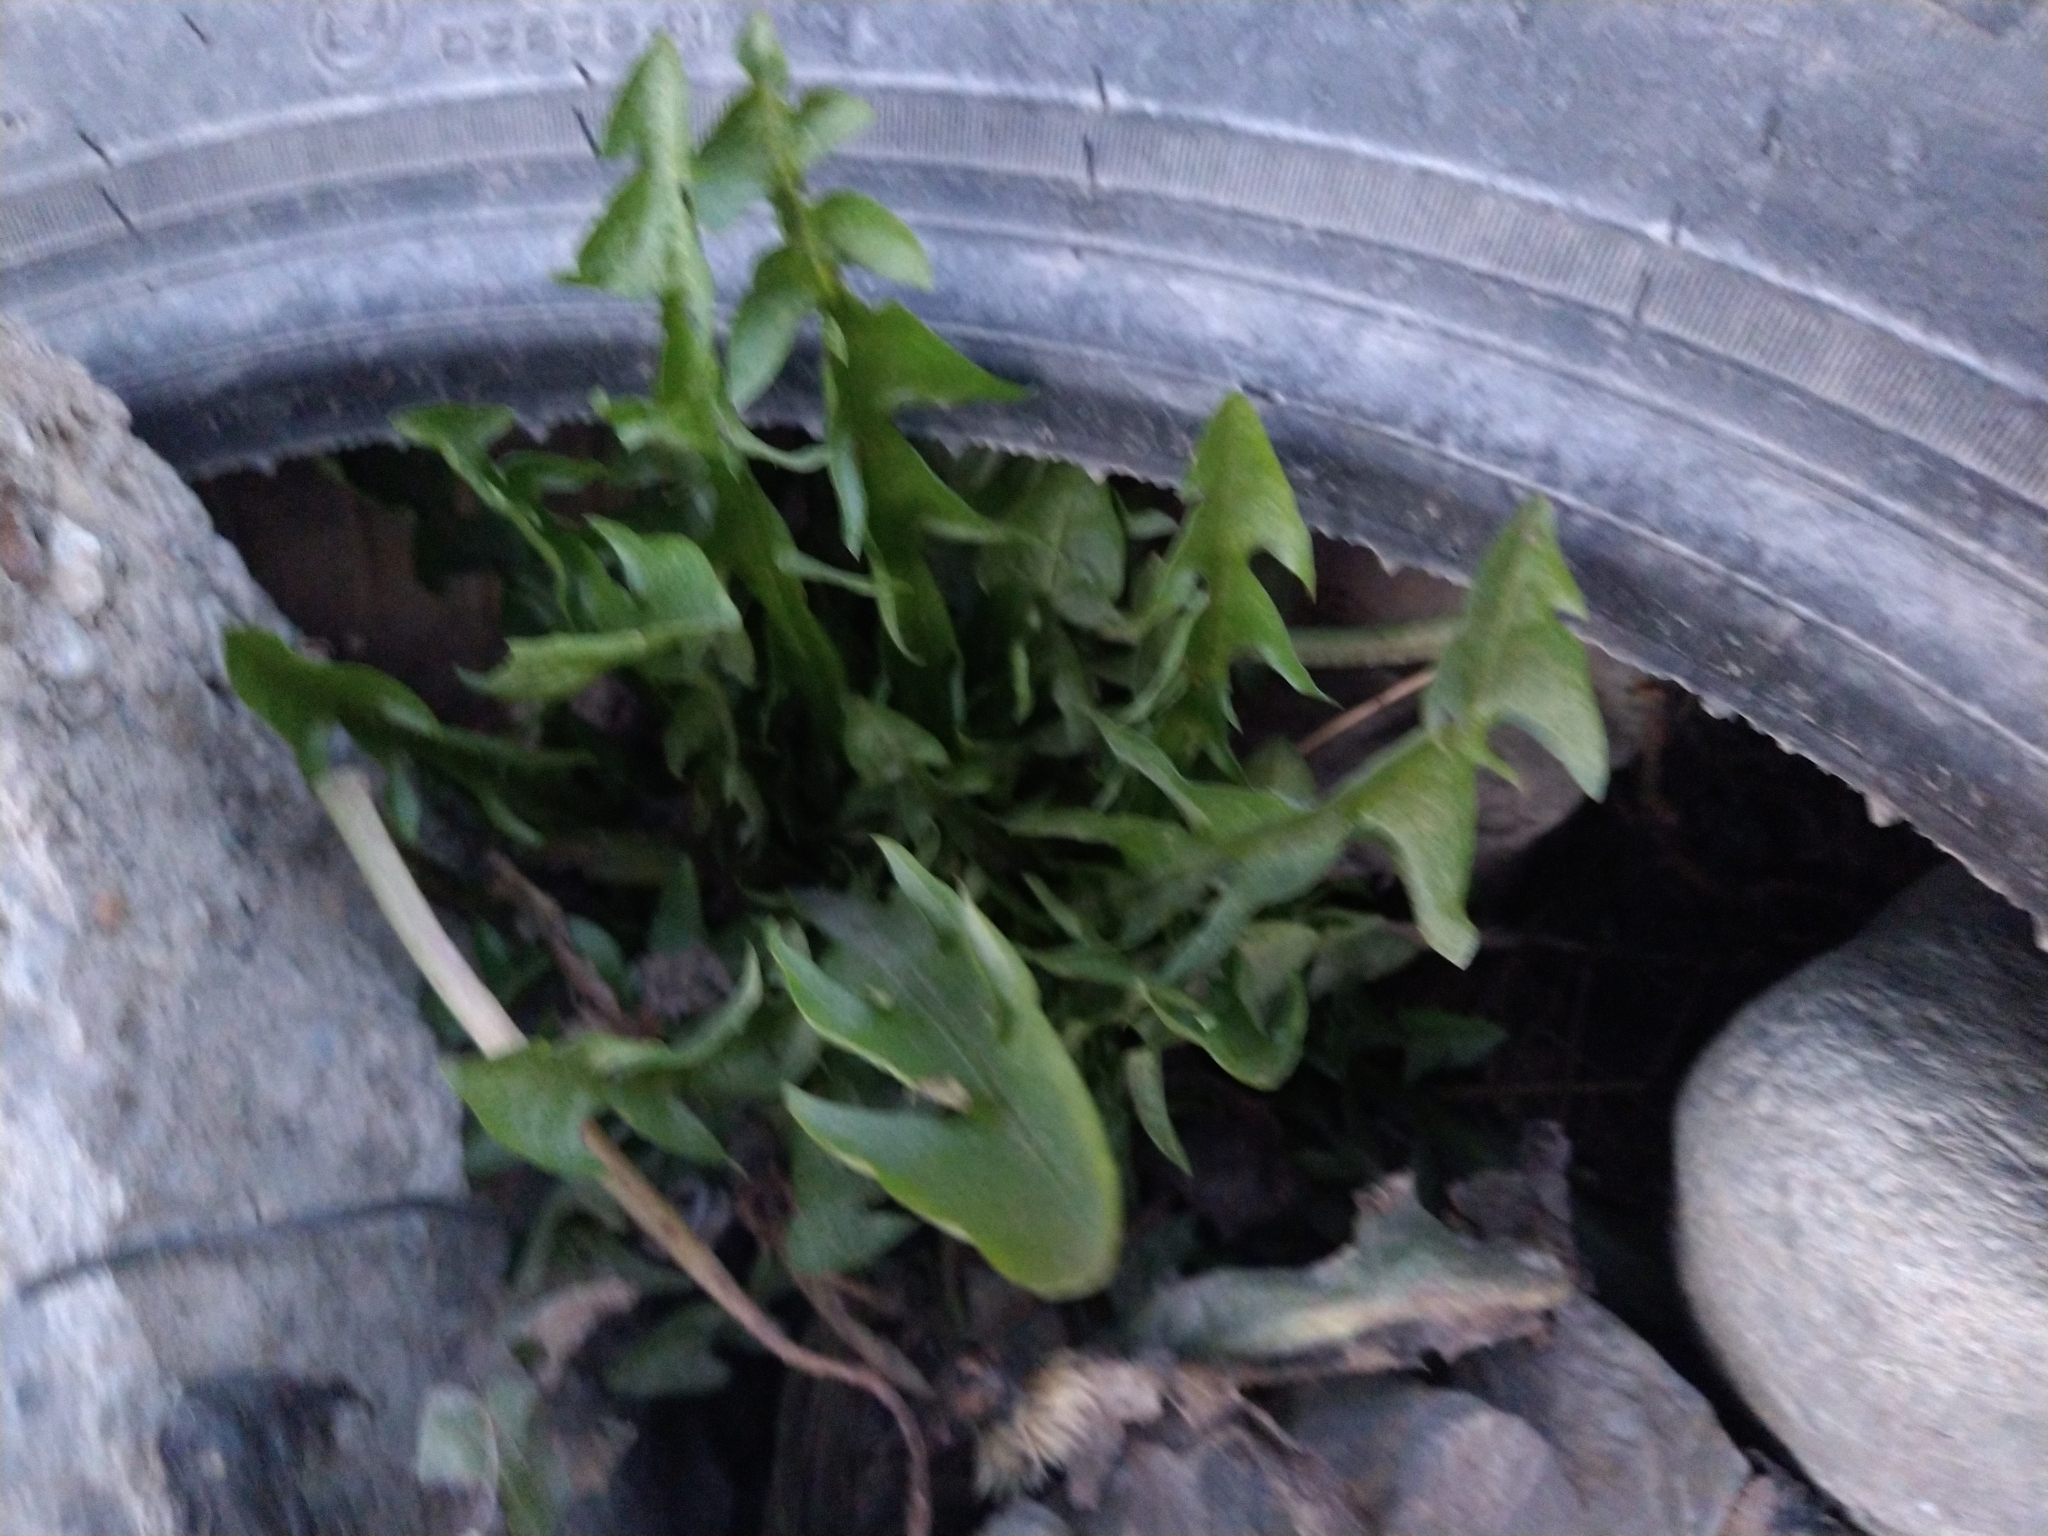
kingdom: Plantae
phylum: Tracheophyta
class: Magnoliopsida
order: Asterales
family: Asteraceae
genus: Taraxacum
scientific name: Taraxacum officinale
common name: Common dandelion
